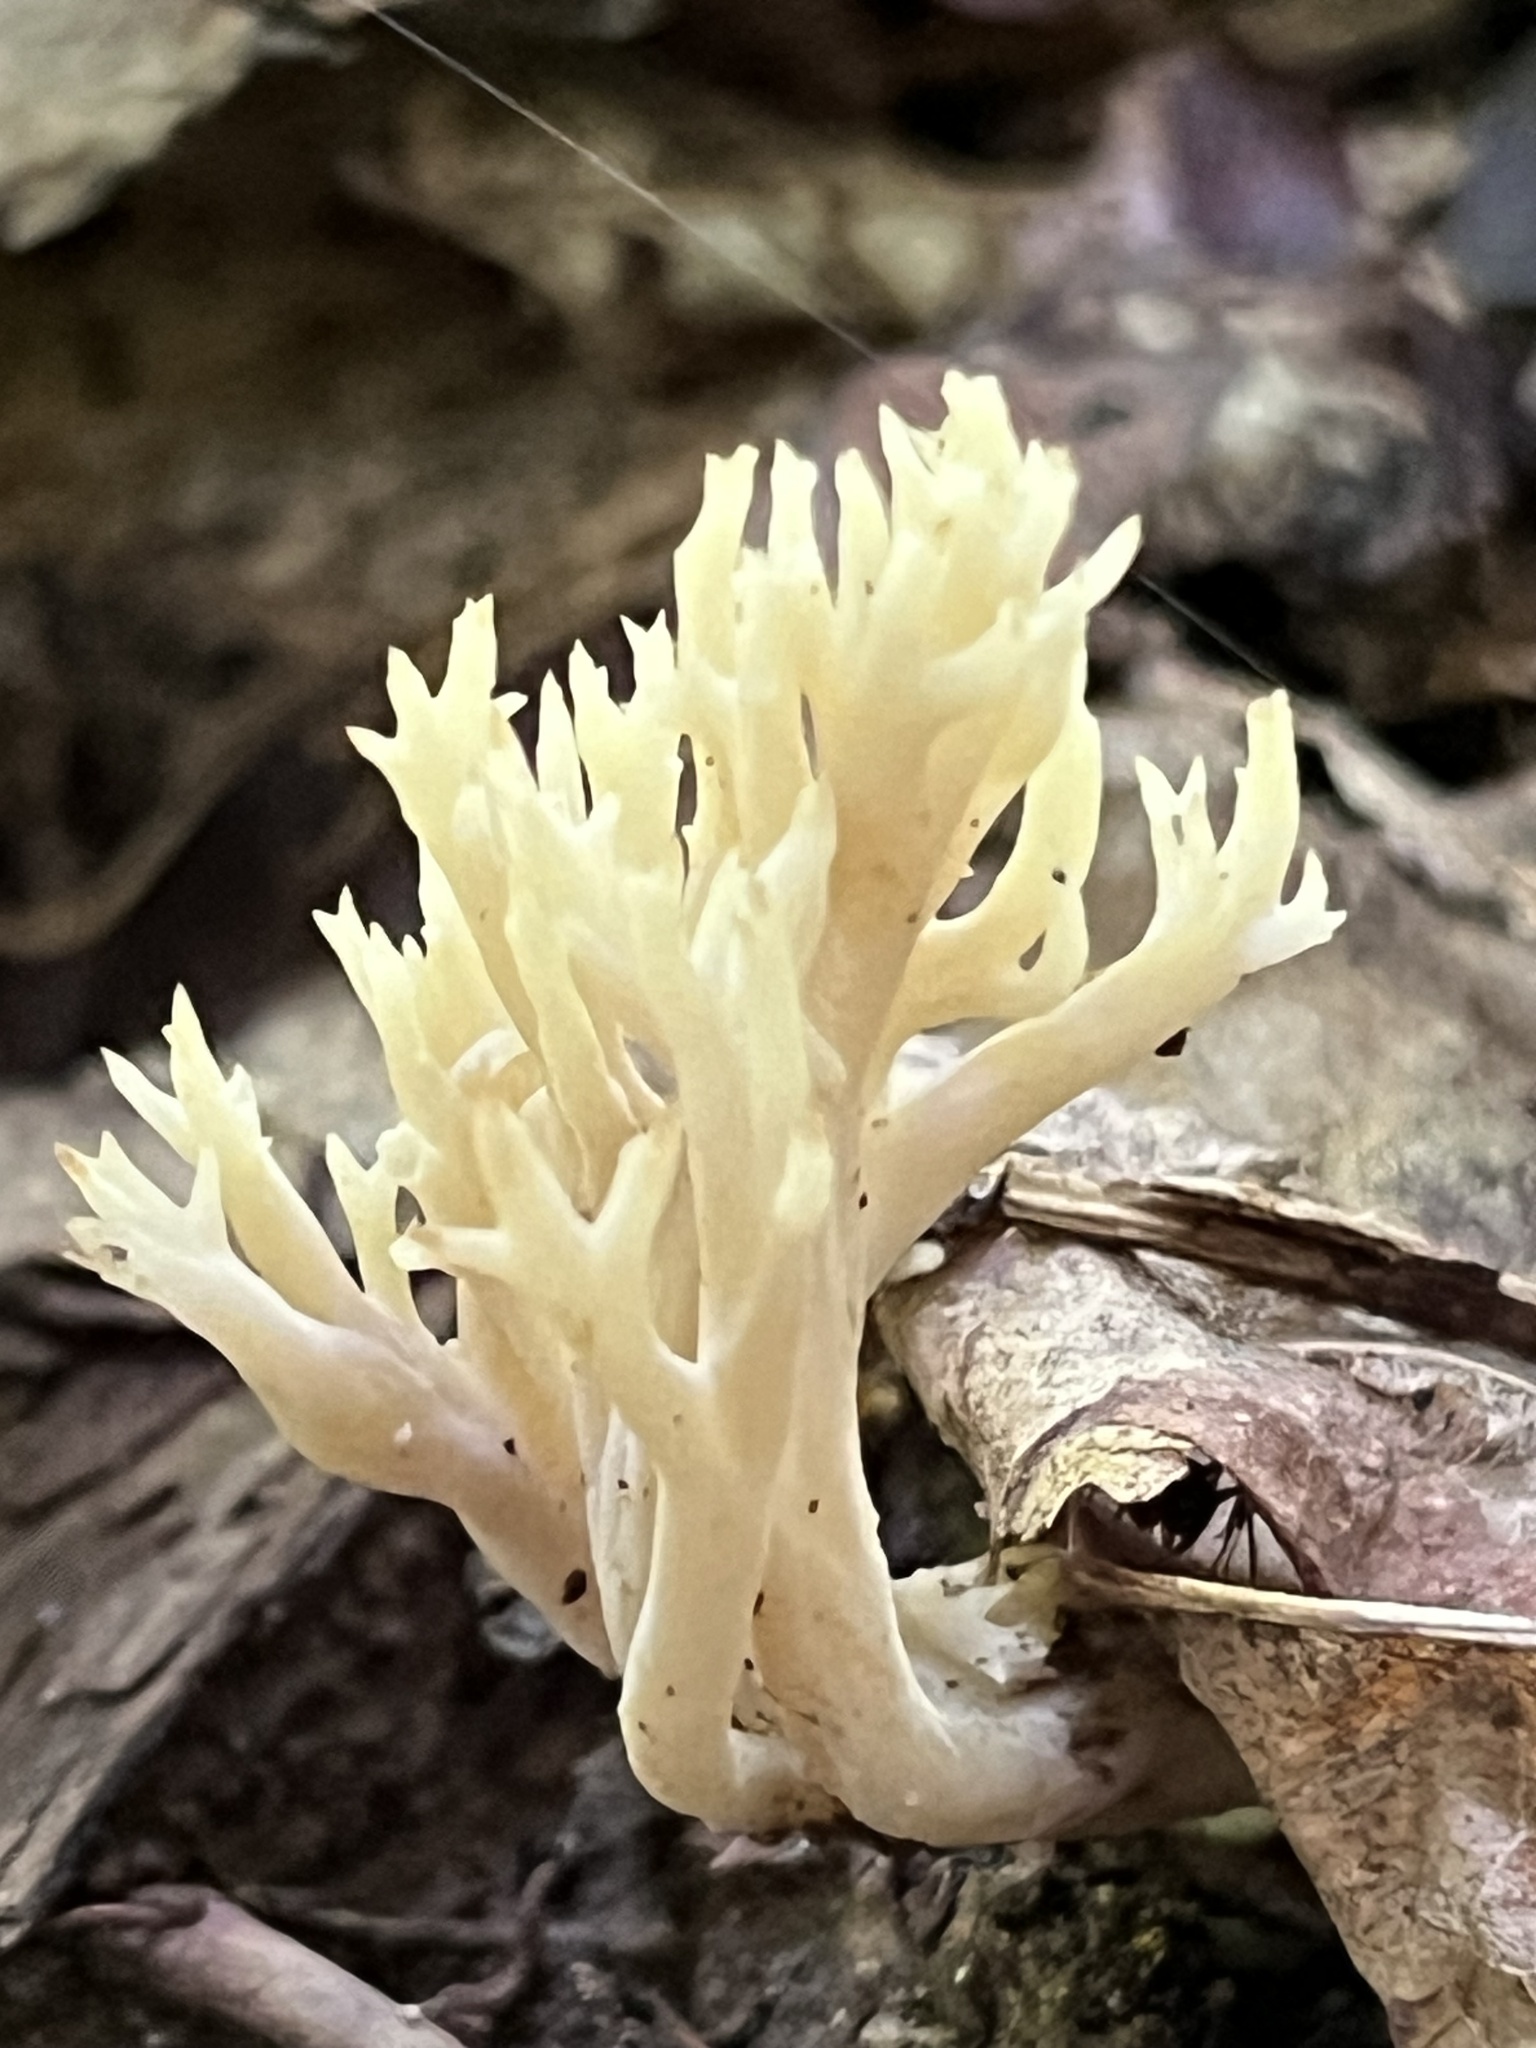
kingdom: Fungi
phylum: Basidiomycota
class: Agaricomycetes
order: Cantharellales
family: Hydnaceae
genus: Clavulina
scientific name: Clavulina coralloides
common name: Crested coral
